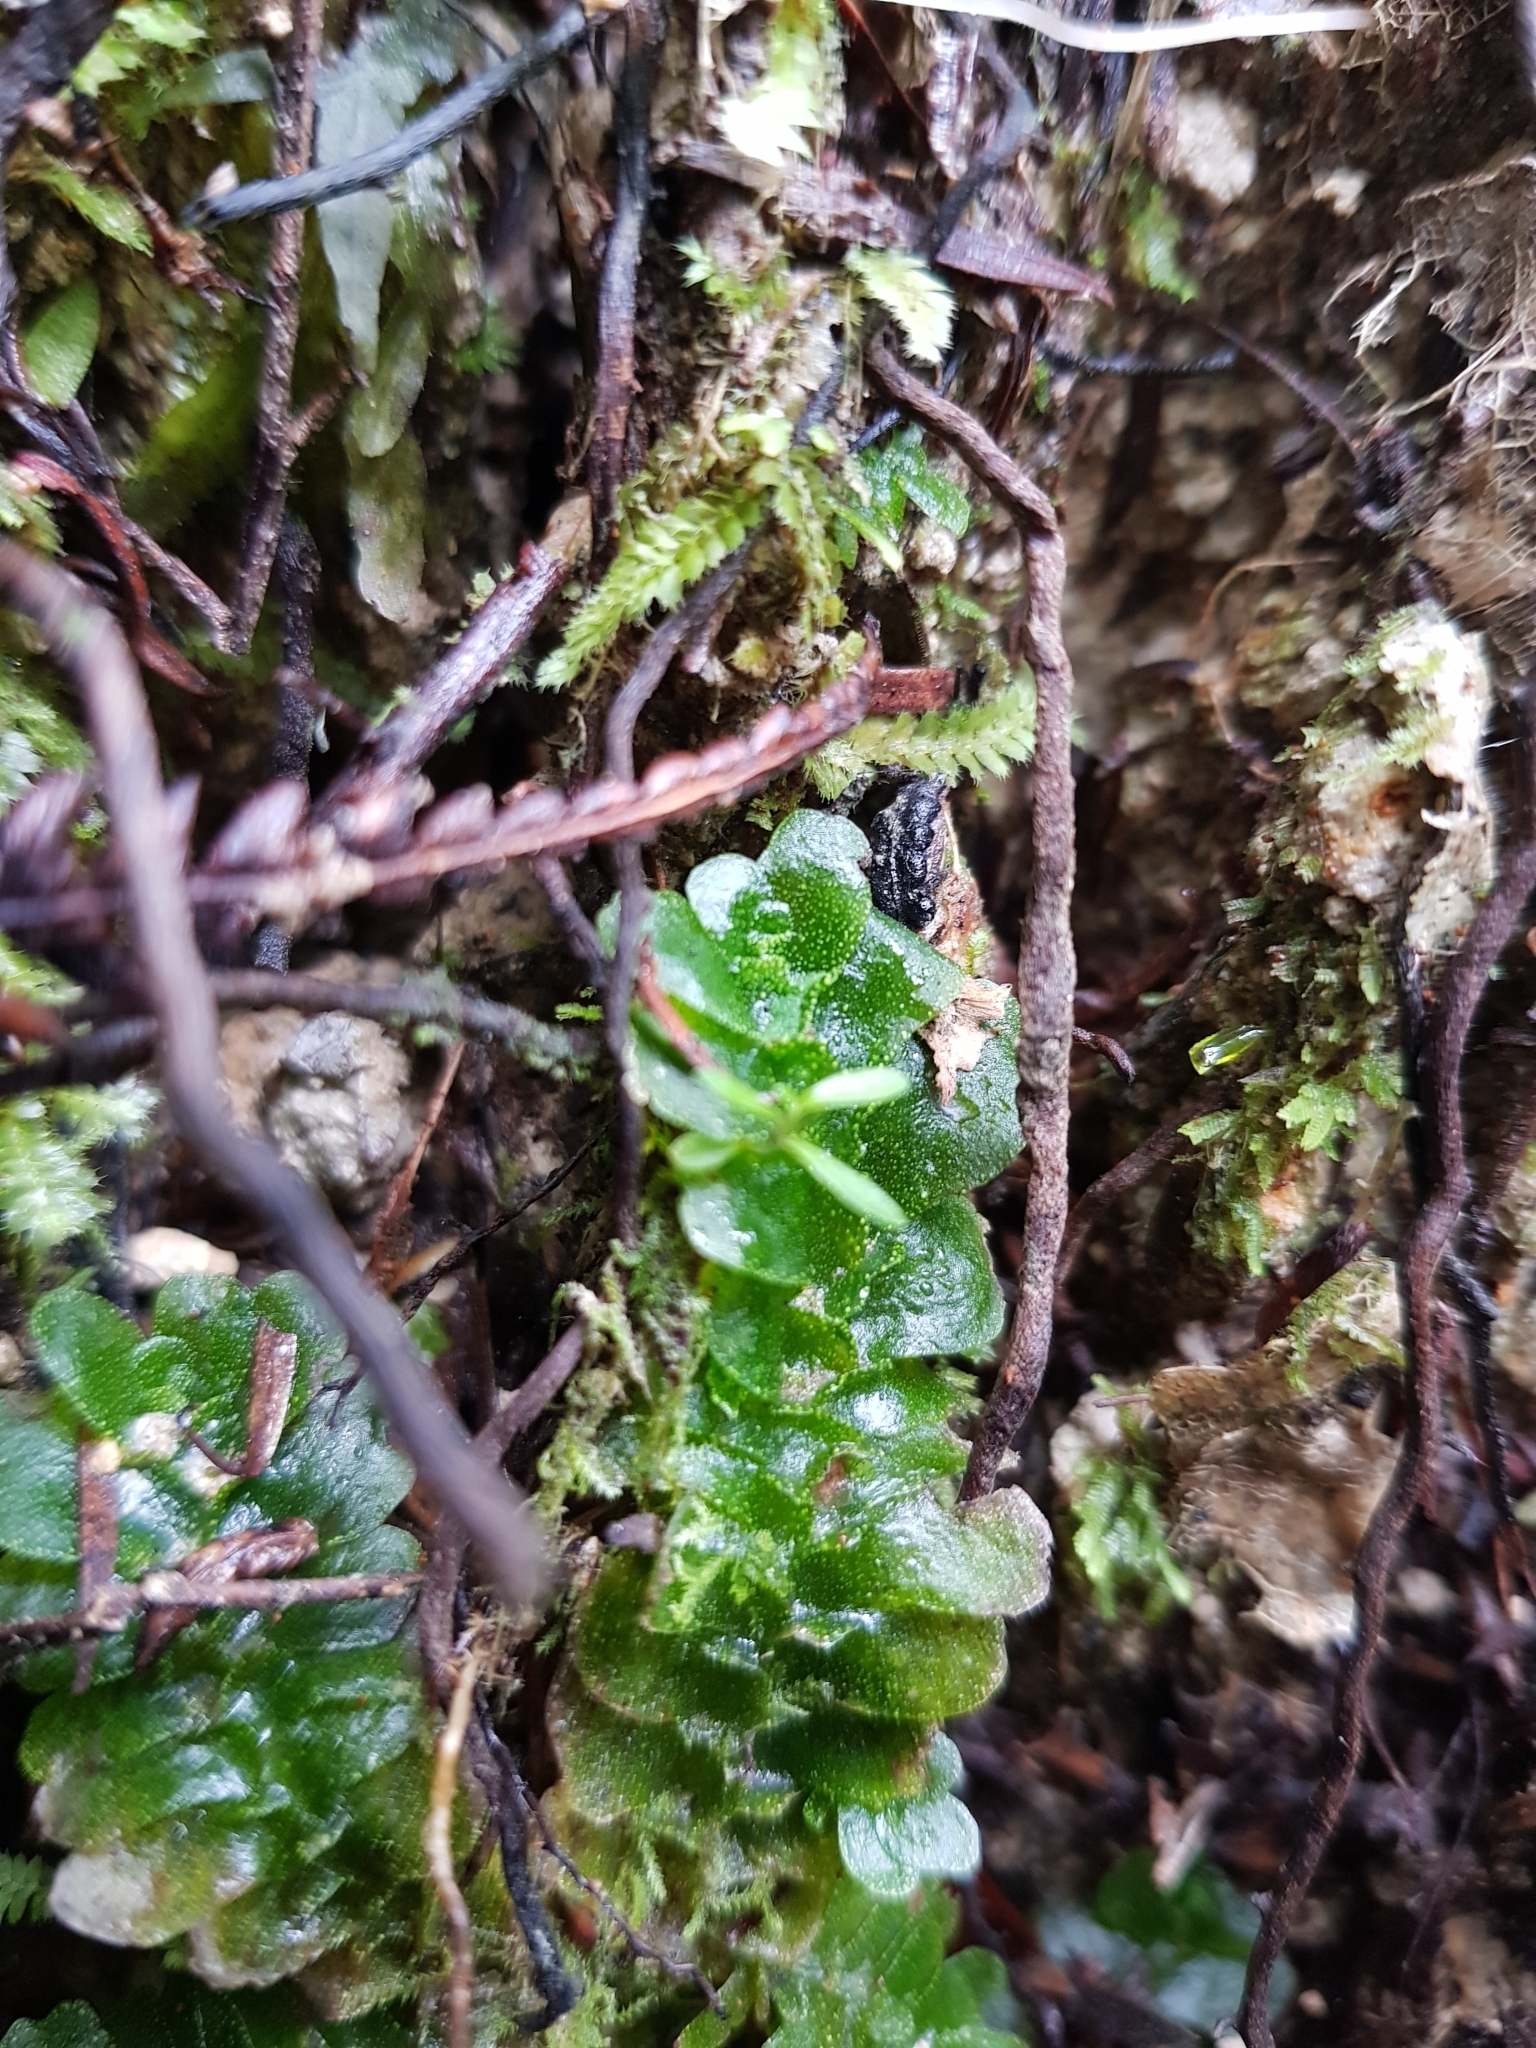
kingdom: Plantae
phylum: Marchantiophyta
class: Haplomitriopsida
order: Treubiales
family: Treubiaceae
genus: Treubia
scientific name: Treubia lacunosa
